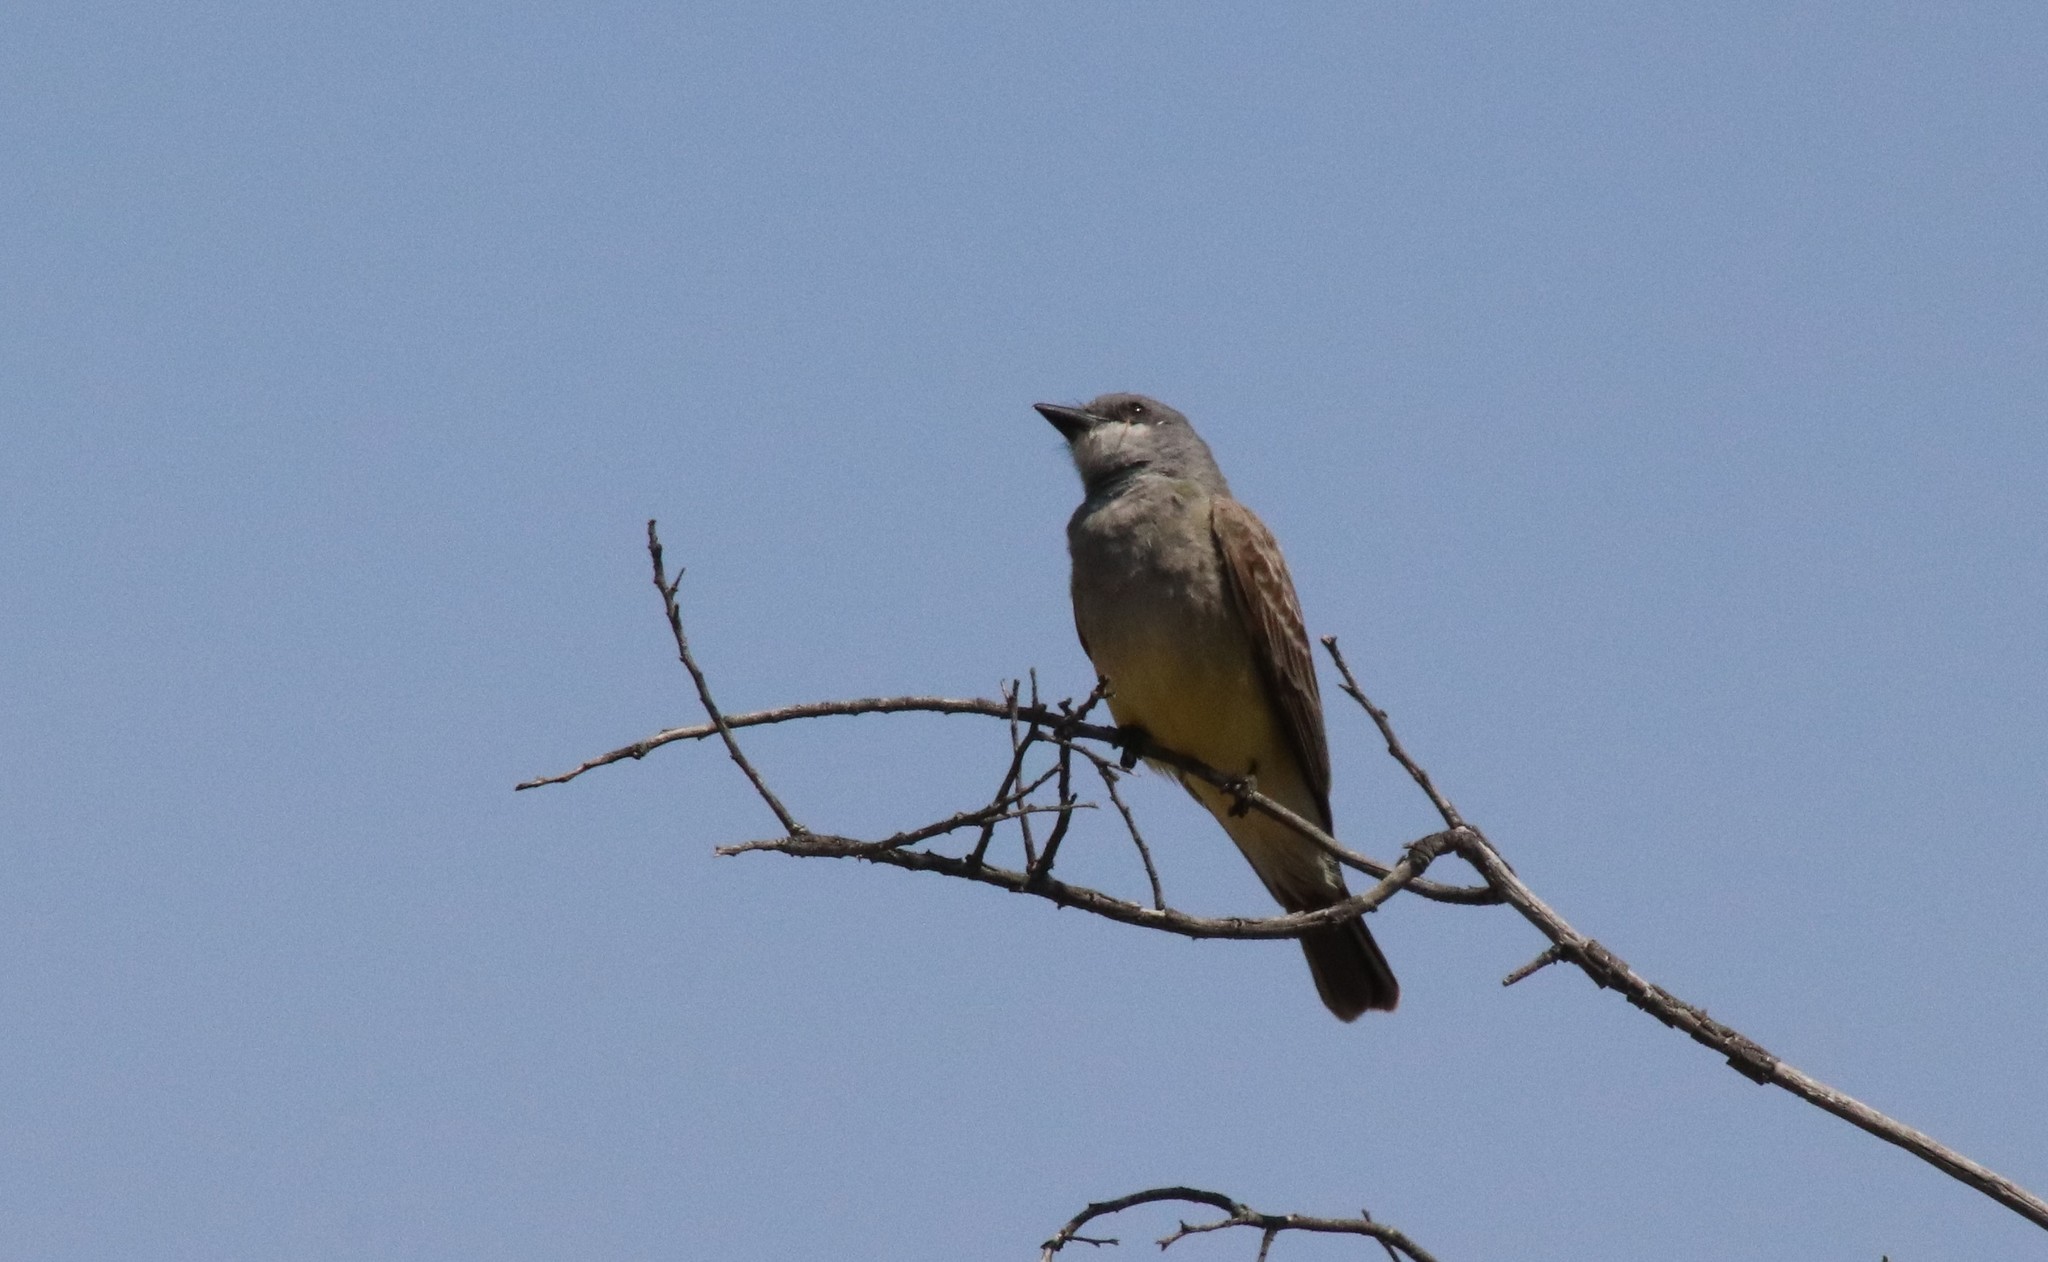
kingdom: Animalia
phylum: Chordata
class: Aves
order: Passeriformes
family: Tyrannidae
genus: Tyrannus
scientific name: Tyrannus vociferans
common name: Cassin's kingbird
